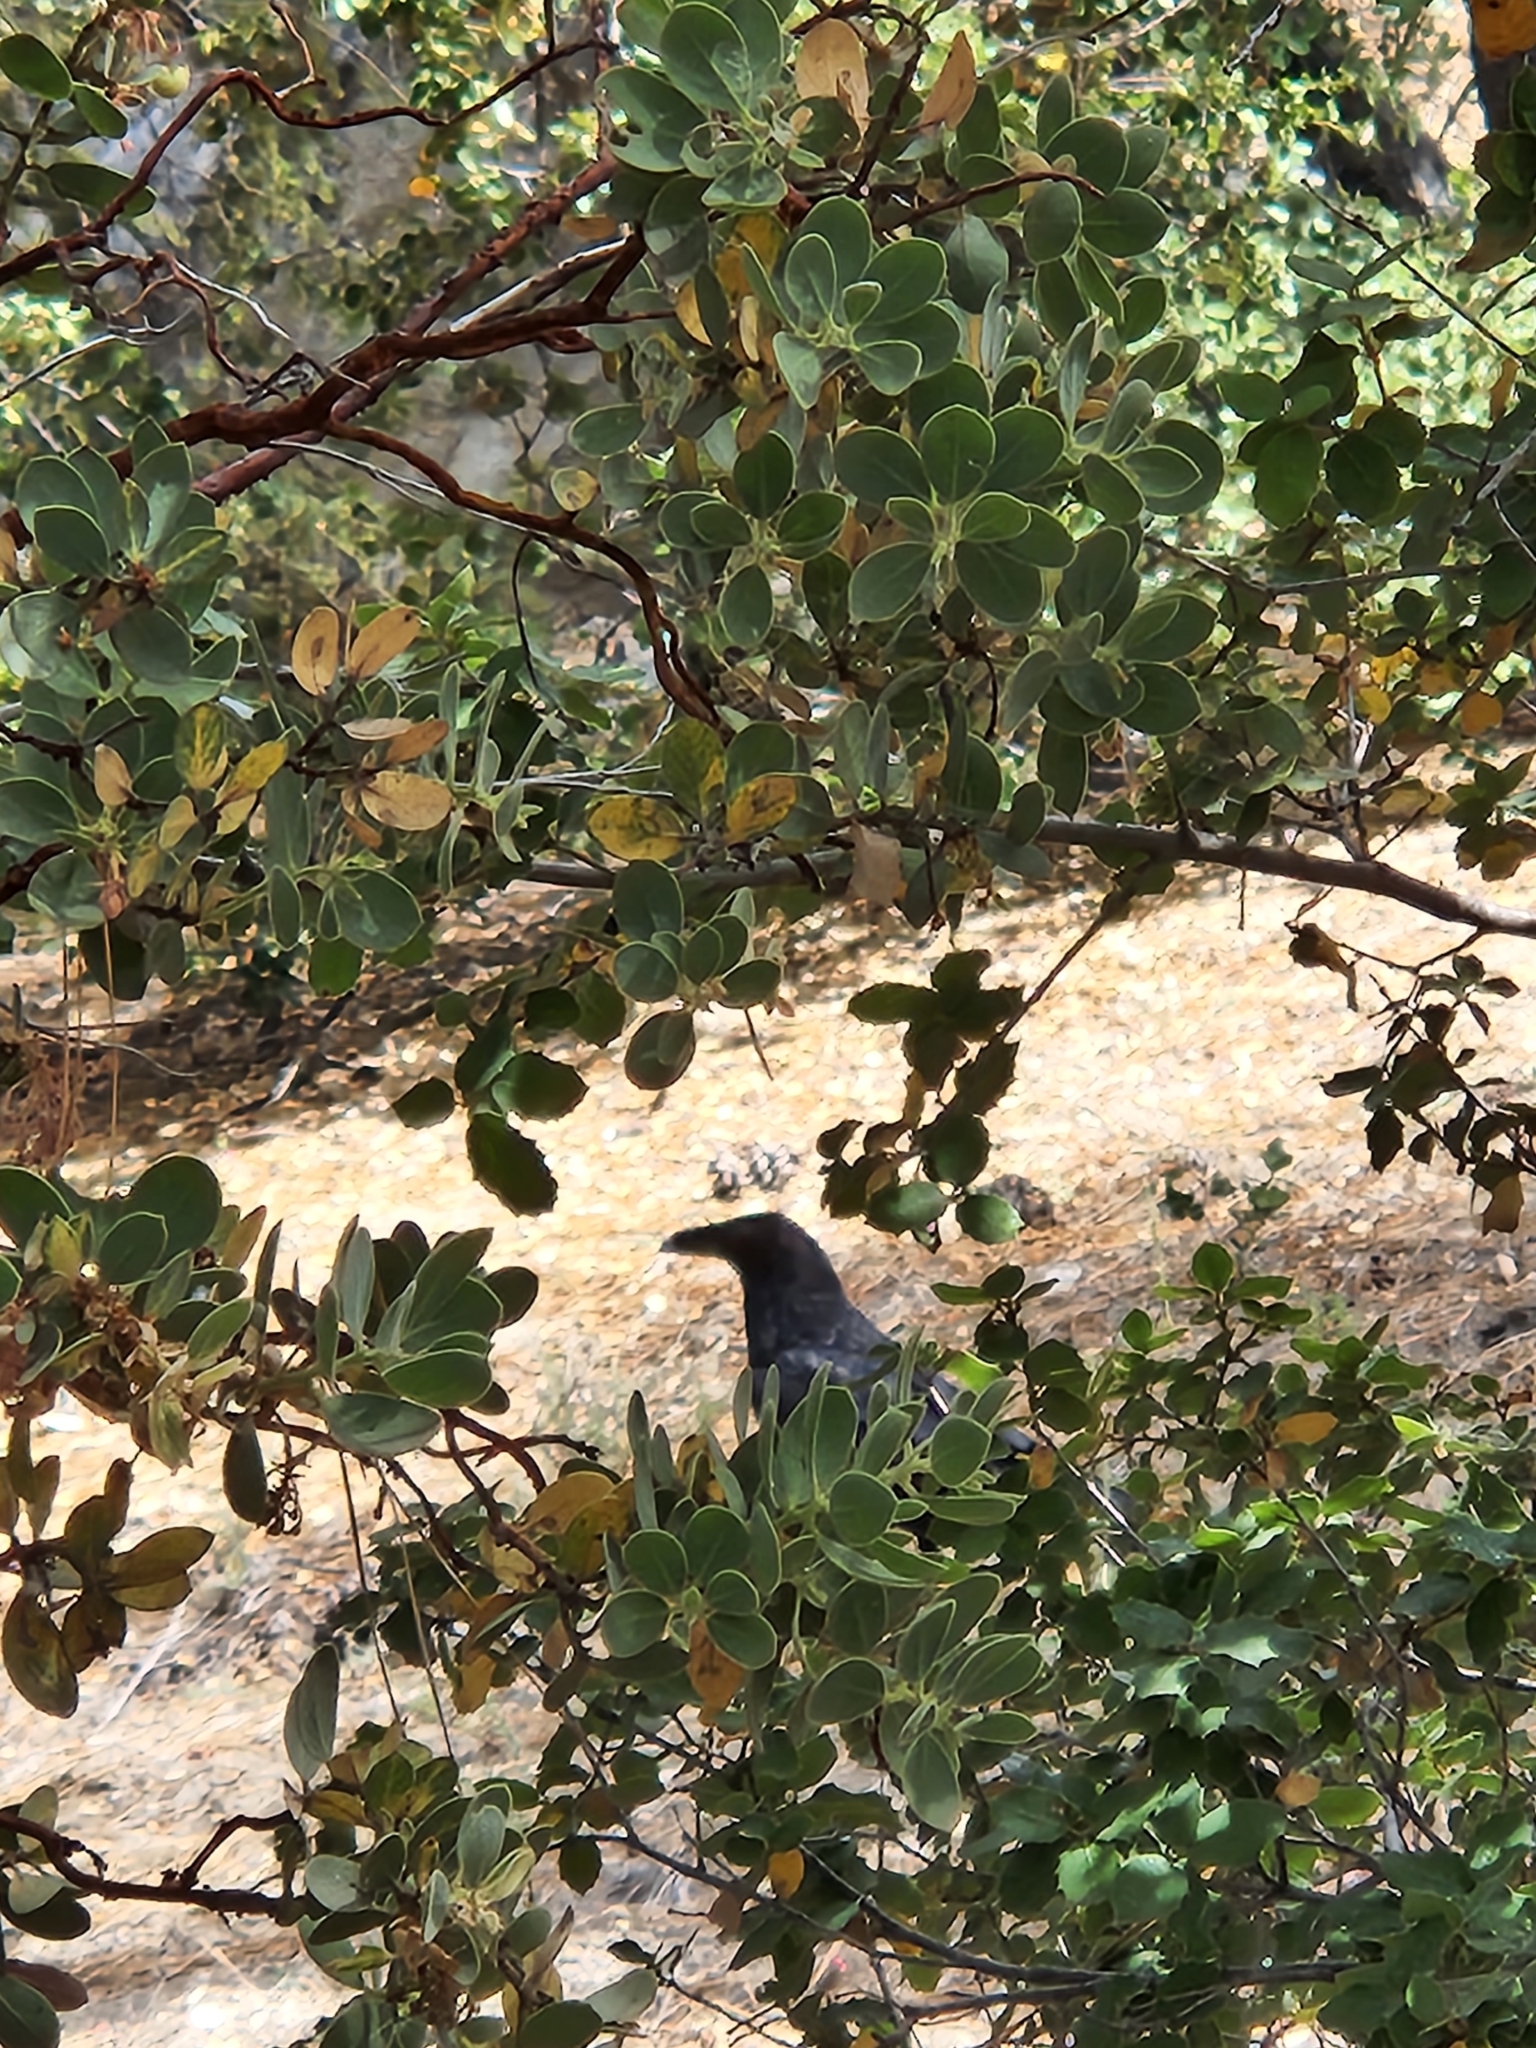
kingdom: Animalia
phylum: Chordata
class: Aves
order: Passeriformes
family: Corvidae
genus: Corvus
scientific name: Corvus corax
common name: Common raven
